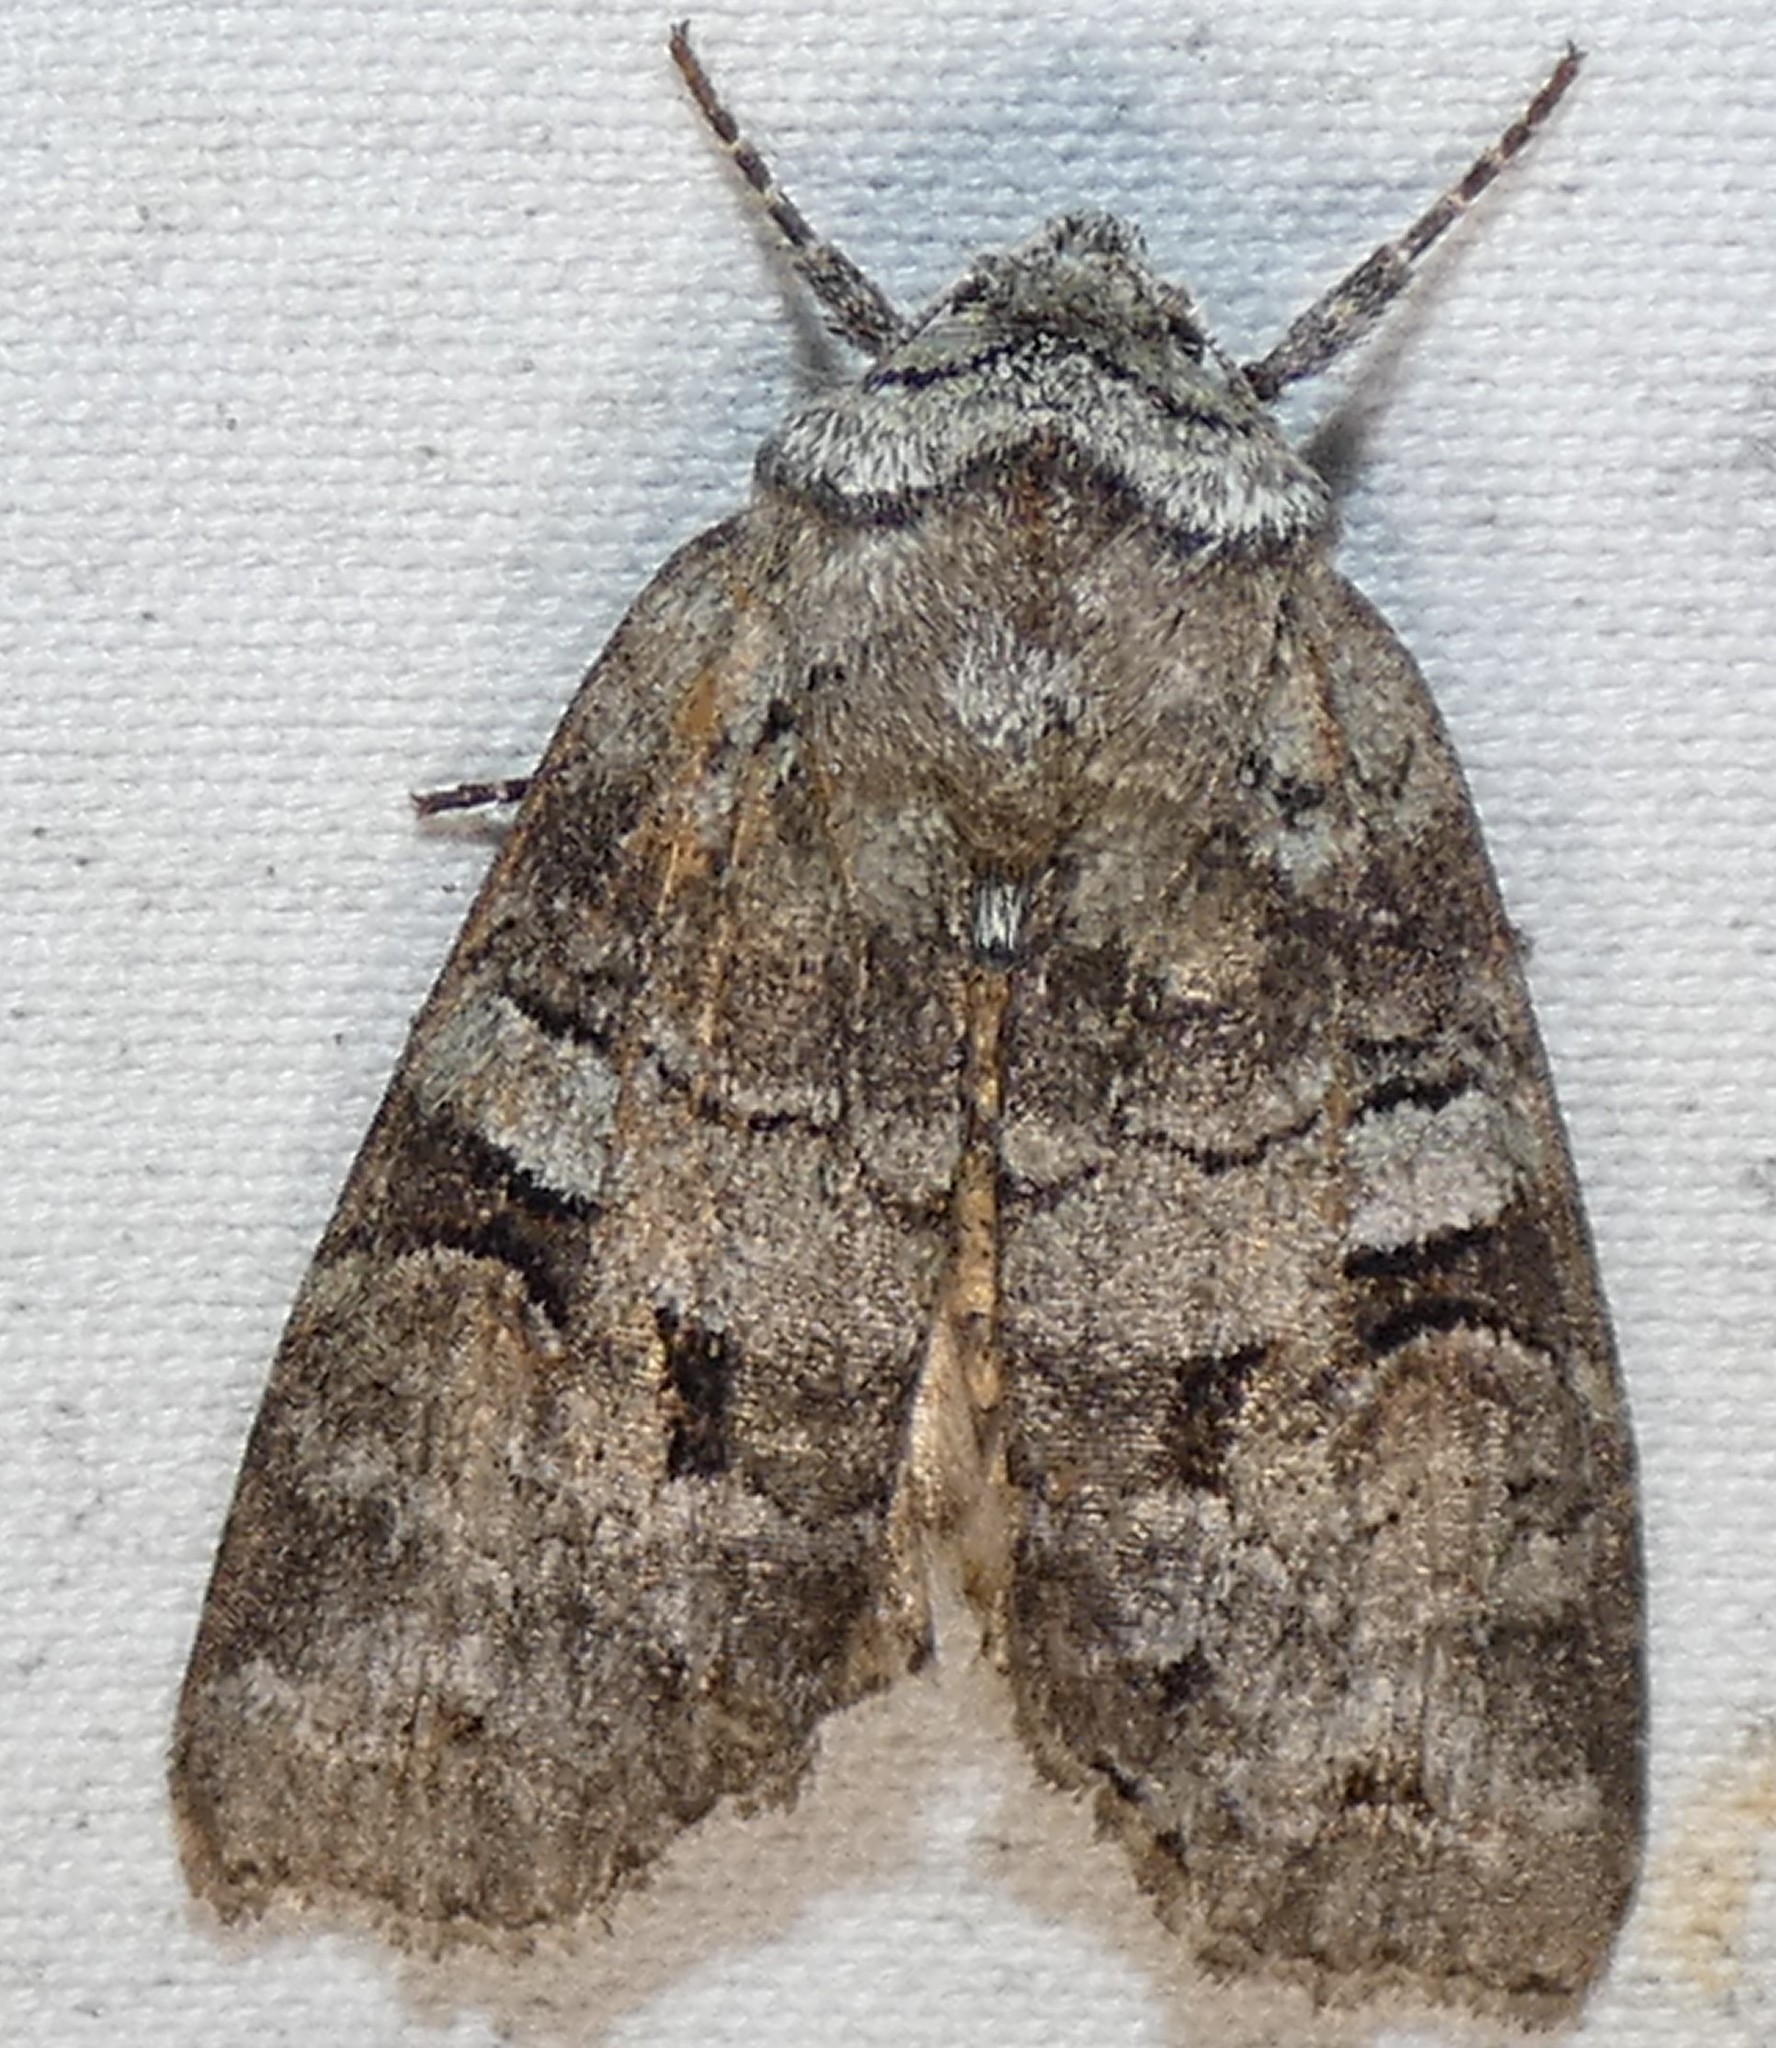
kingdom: Animalia
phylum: Arthropoda
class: Insecta
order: Lepidoptera
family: Noctuidae
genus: Egira
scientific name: Egira alternans
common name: Alternate woodling
